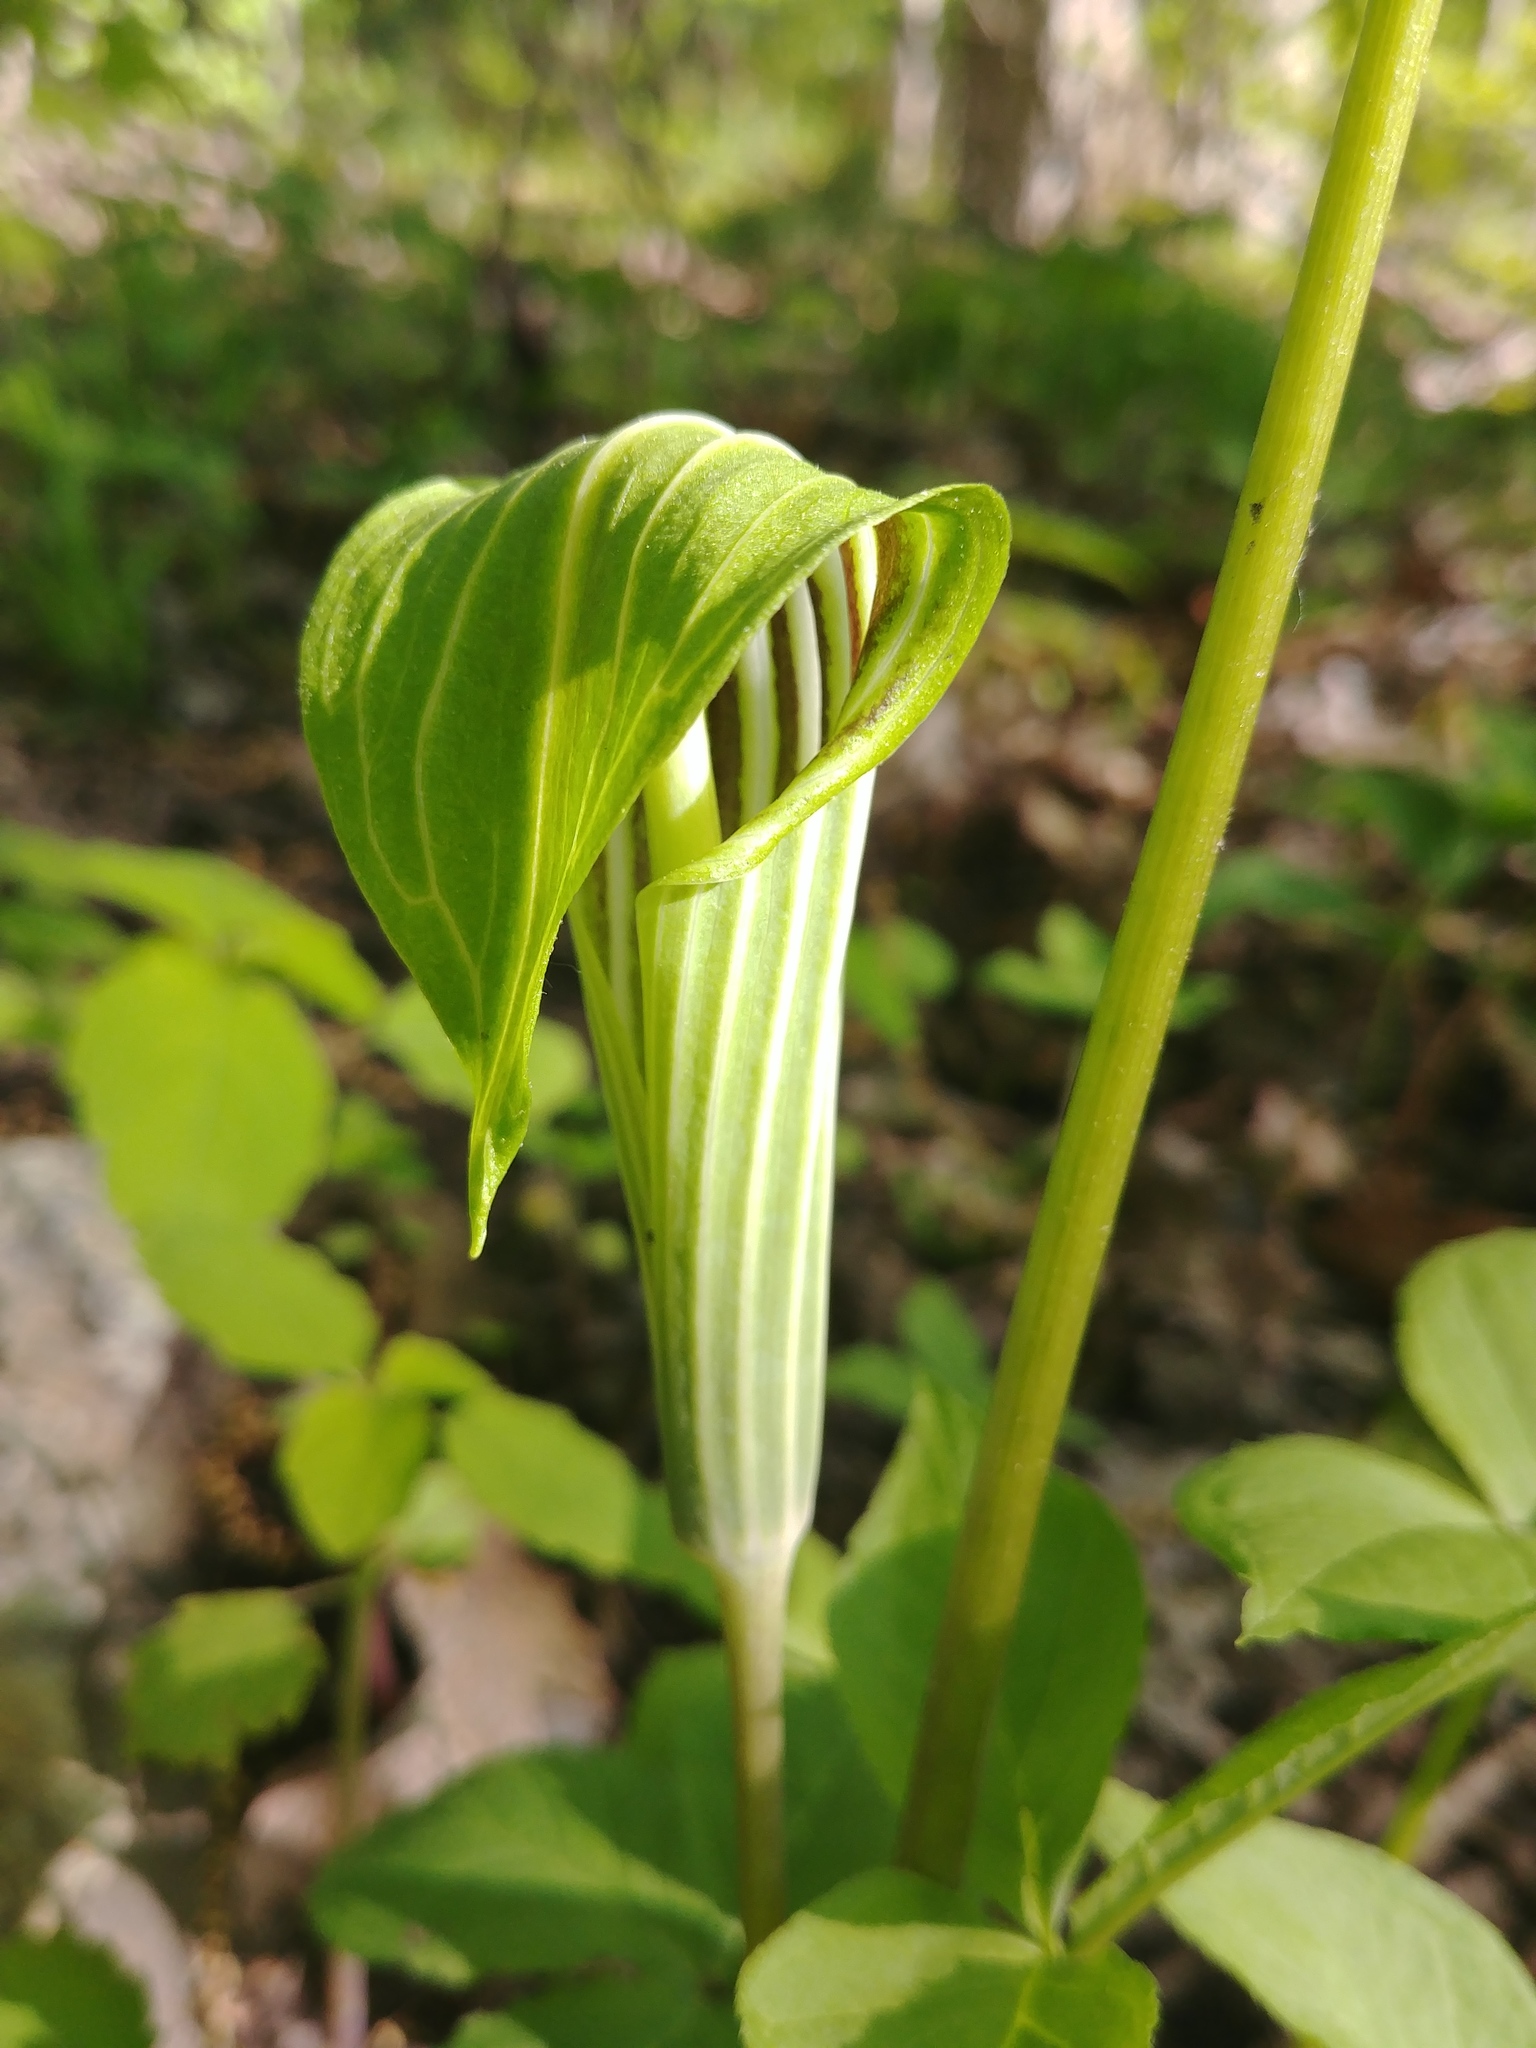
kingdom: Plantae
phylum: Tracheophyta
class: Liliopsida
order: Alismatales
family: Araceae
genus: Arisaema
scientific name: Arisaema stewardsonii
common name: Swamp jack-in-the-pulpit
